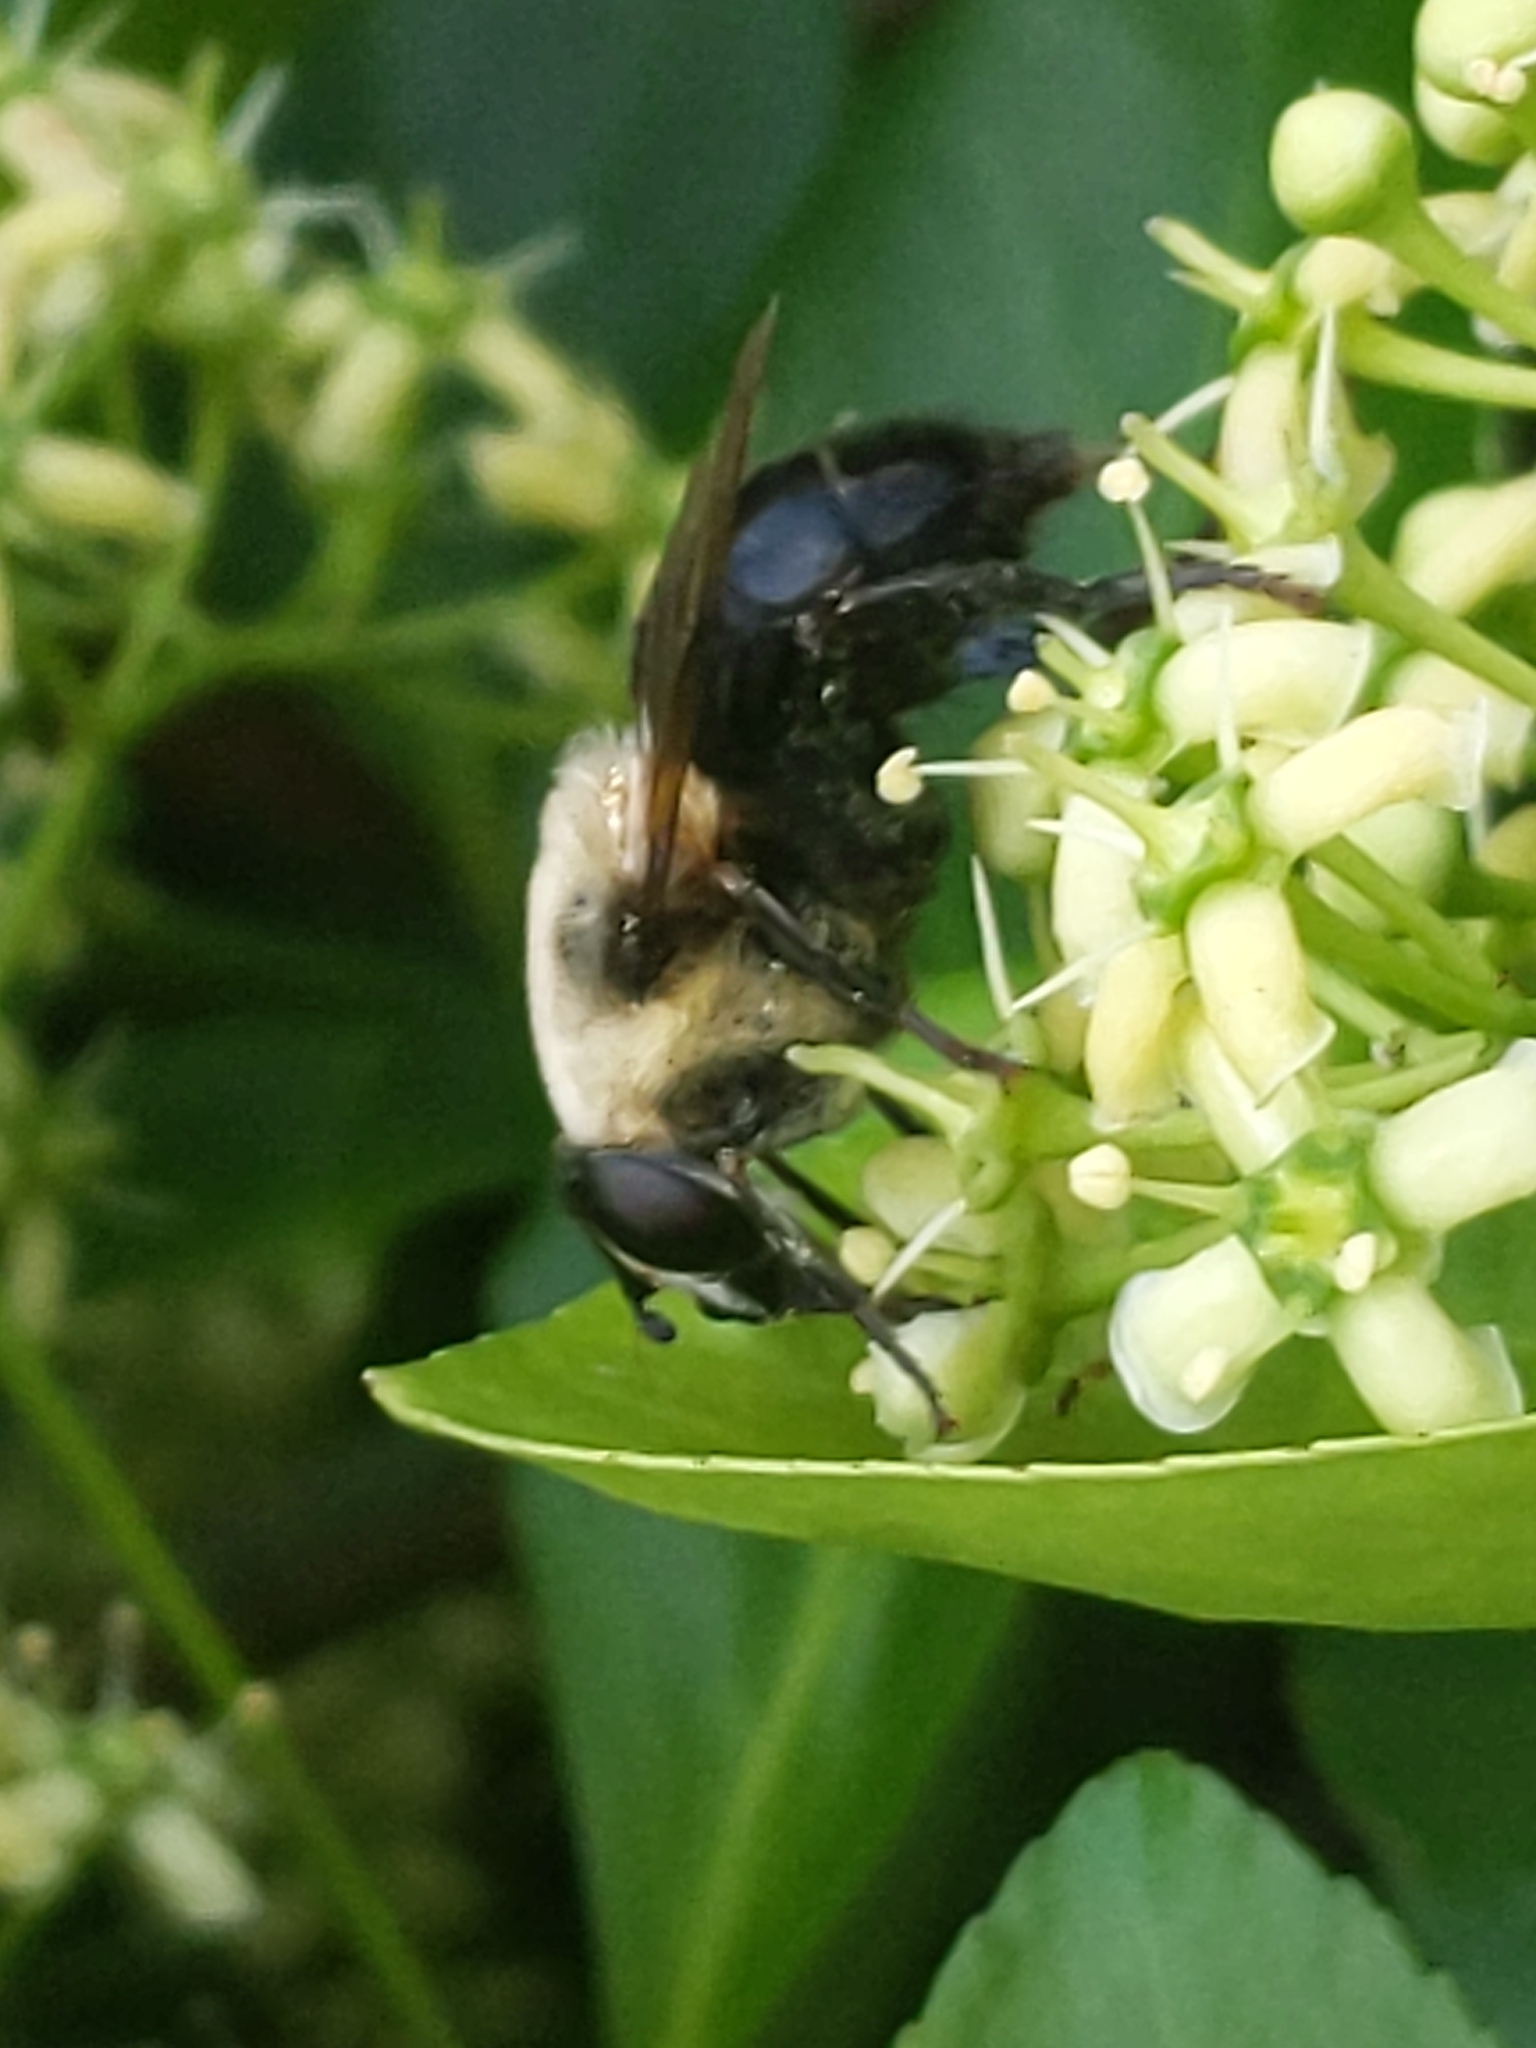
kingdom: Animalia
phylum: Arthropoda
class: Insecta
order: Diptera
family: Syrphidae
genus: Imatisma
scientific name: Imatisma bautias
